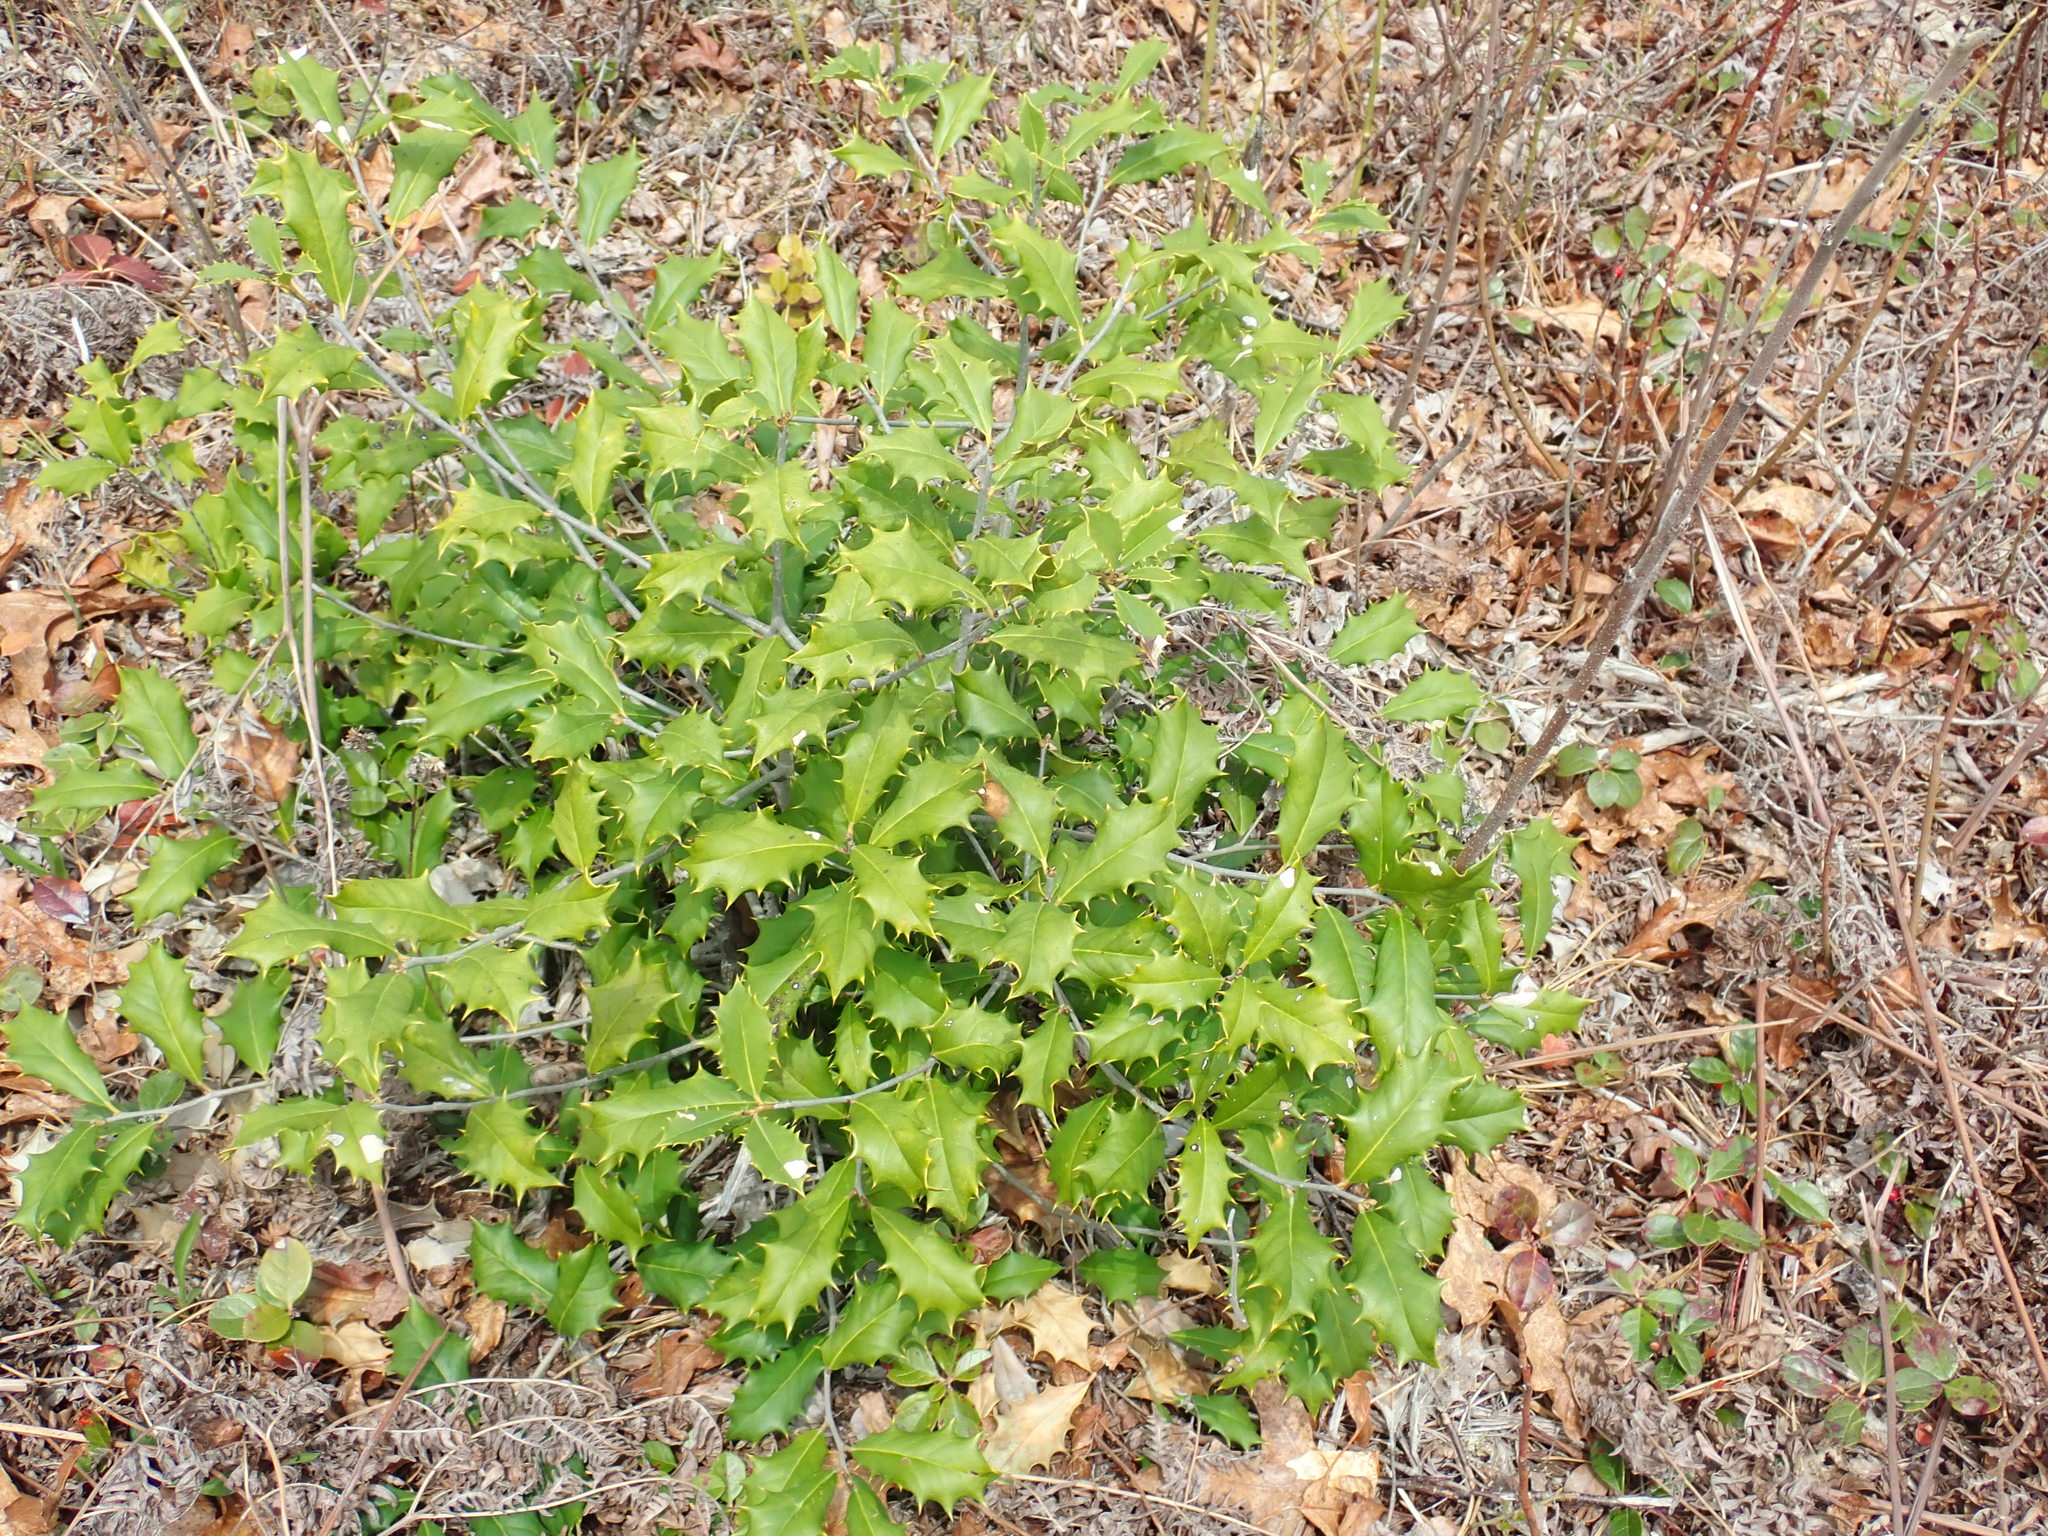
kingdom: Plantae
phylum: Tracheophyta
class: Magnoliopsida
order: Aquifoliales
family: Aquifoliaceae
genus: Ilex
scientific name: Ilex opaca
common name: American holly
